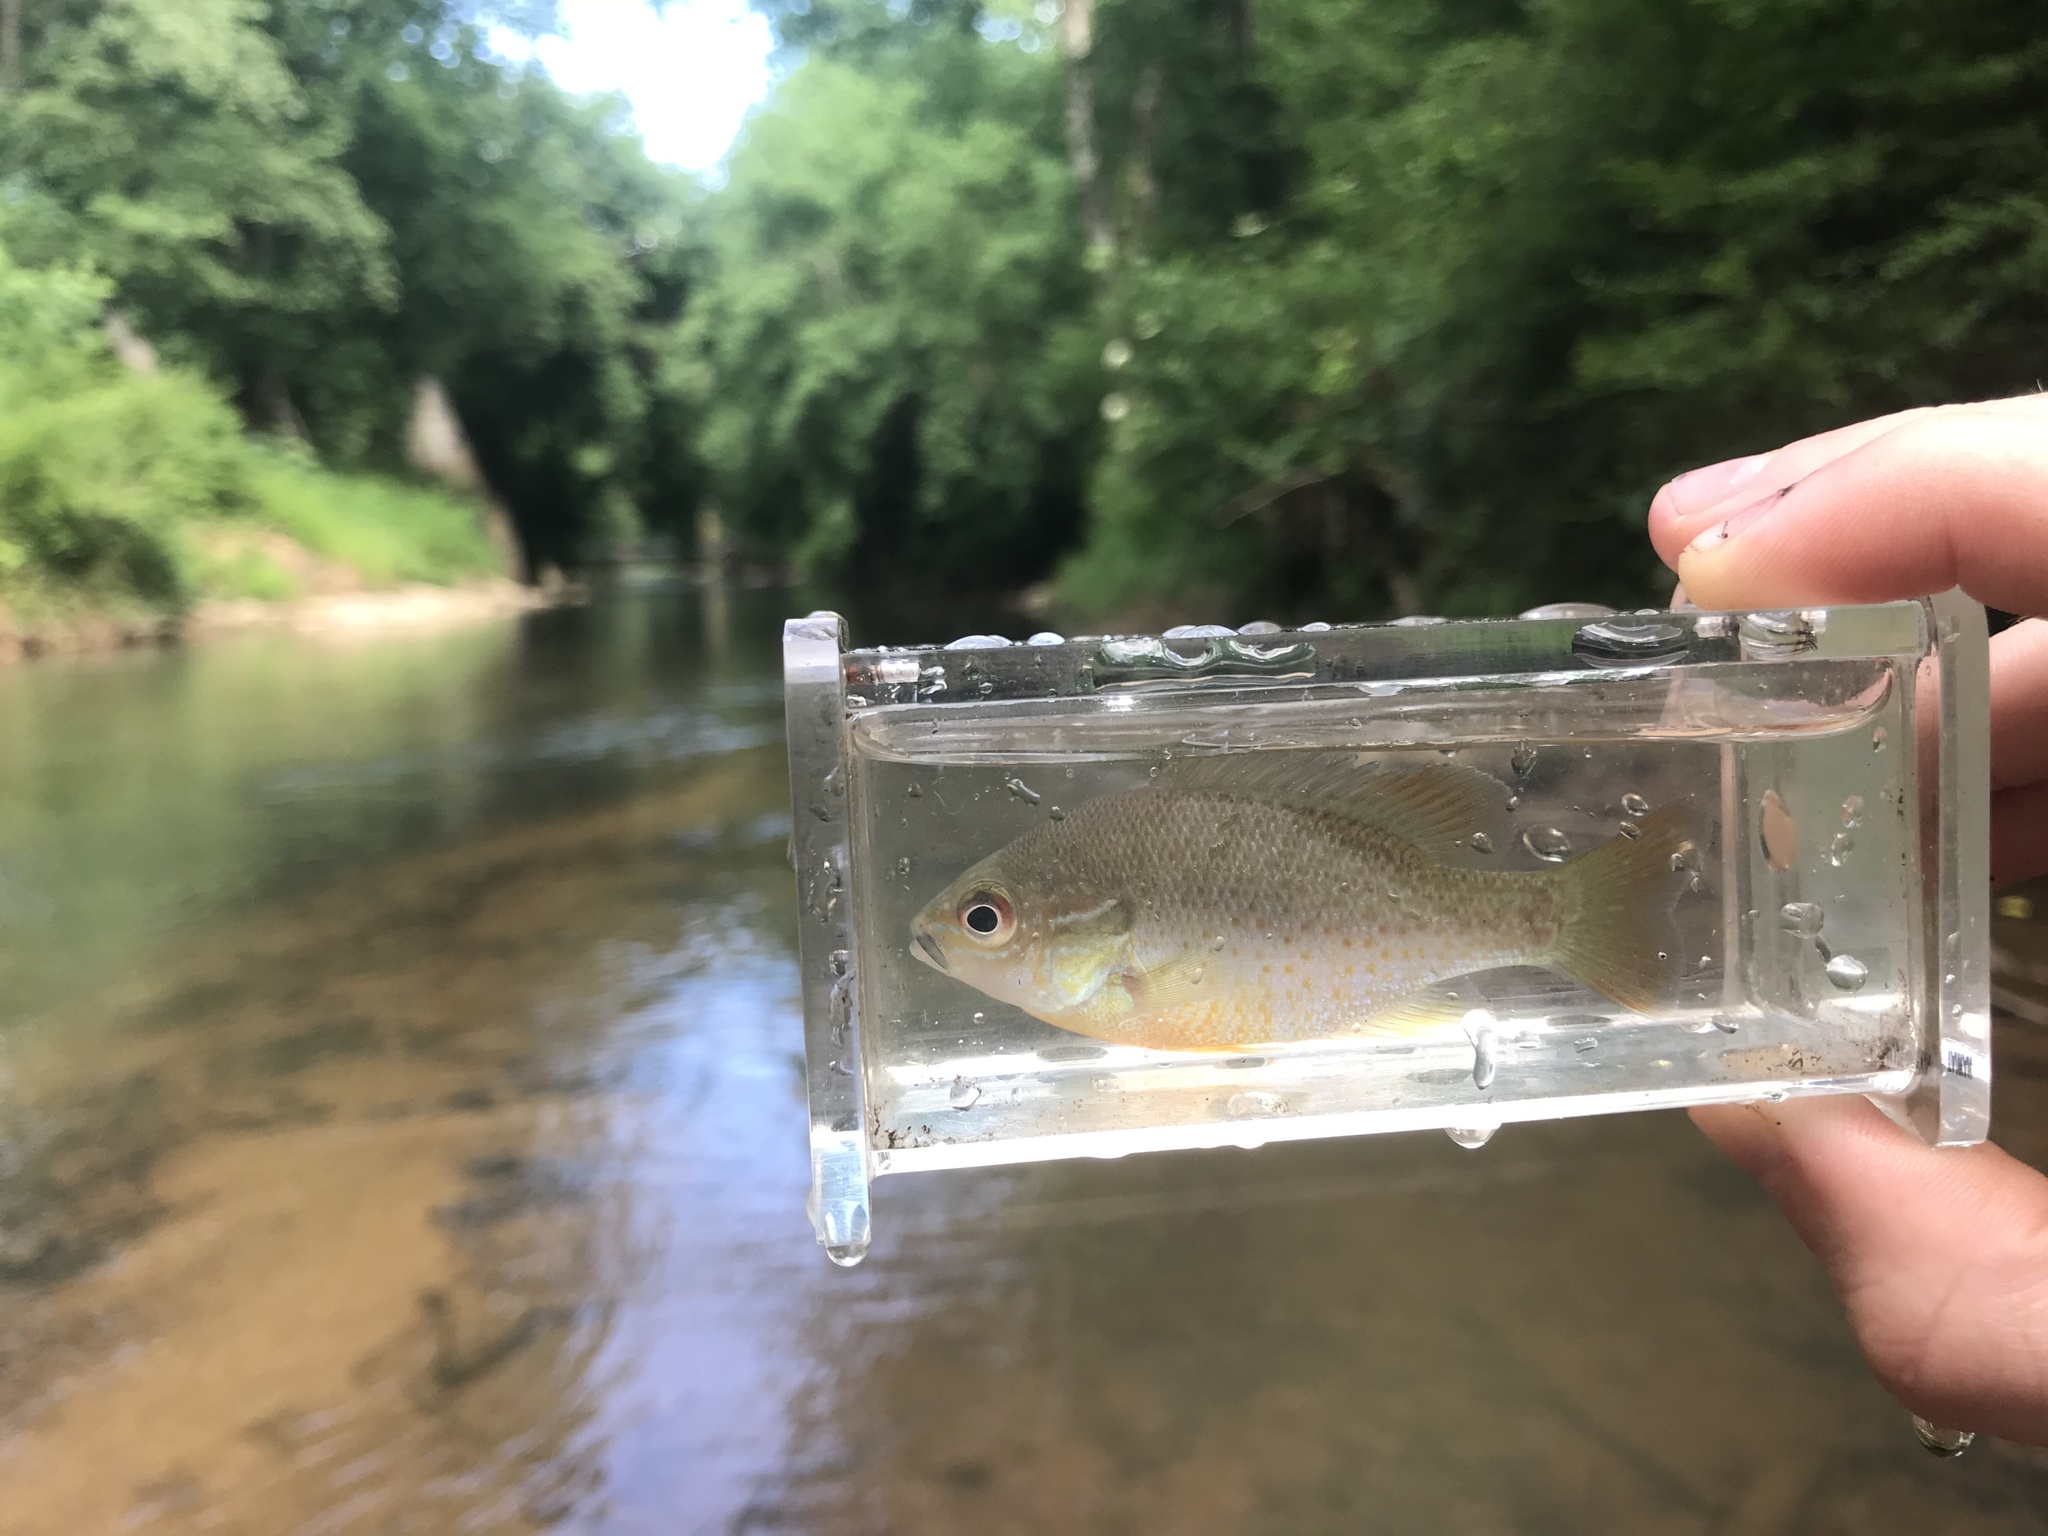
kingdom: Animalia
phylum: Chordata
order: Perciformes
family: Centrarchidae
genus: Lepomis
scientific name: Lepomis auritus
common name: Redbreast sunfish
